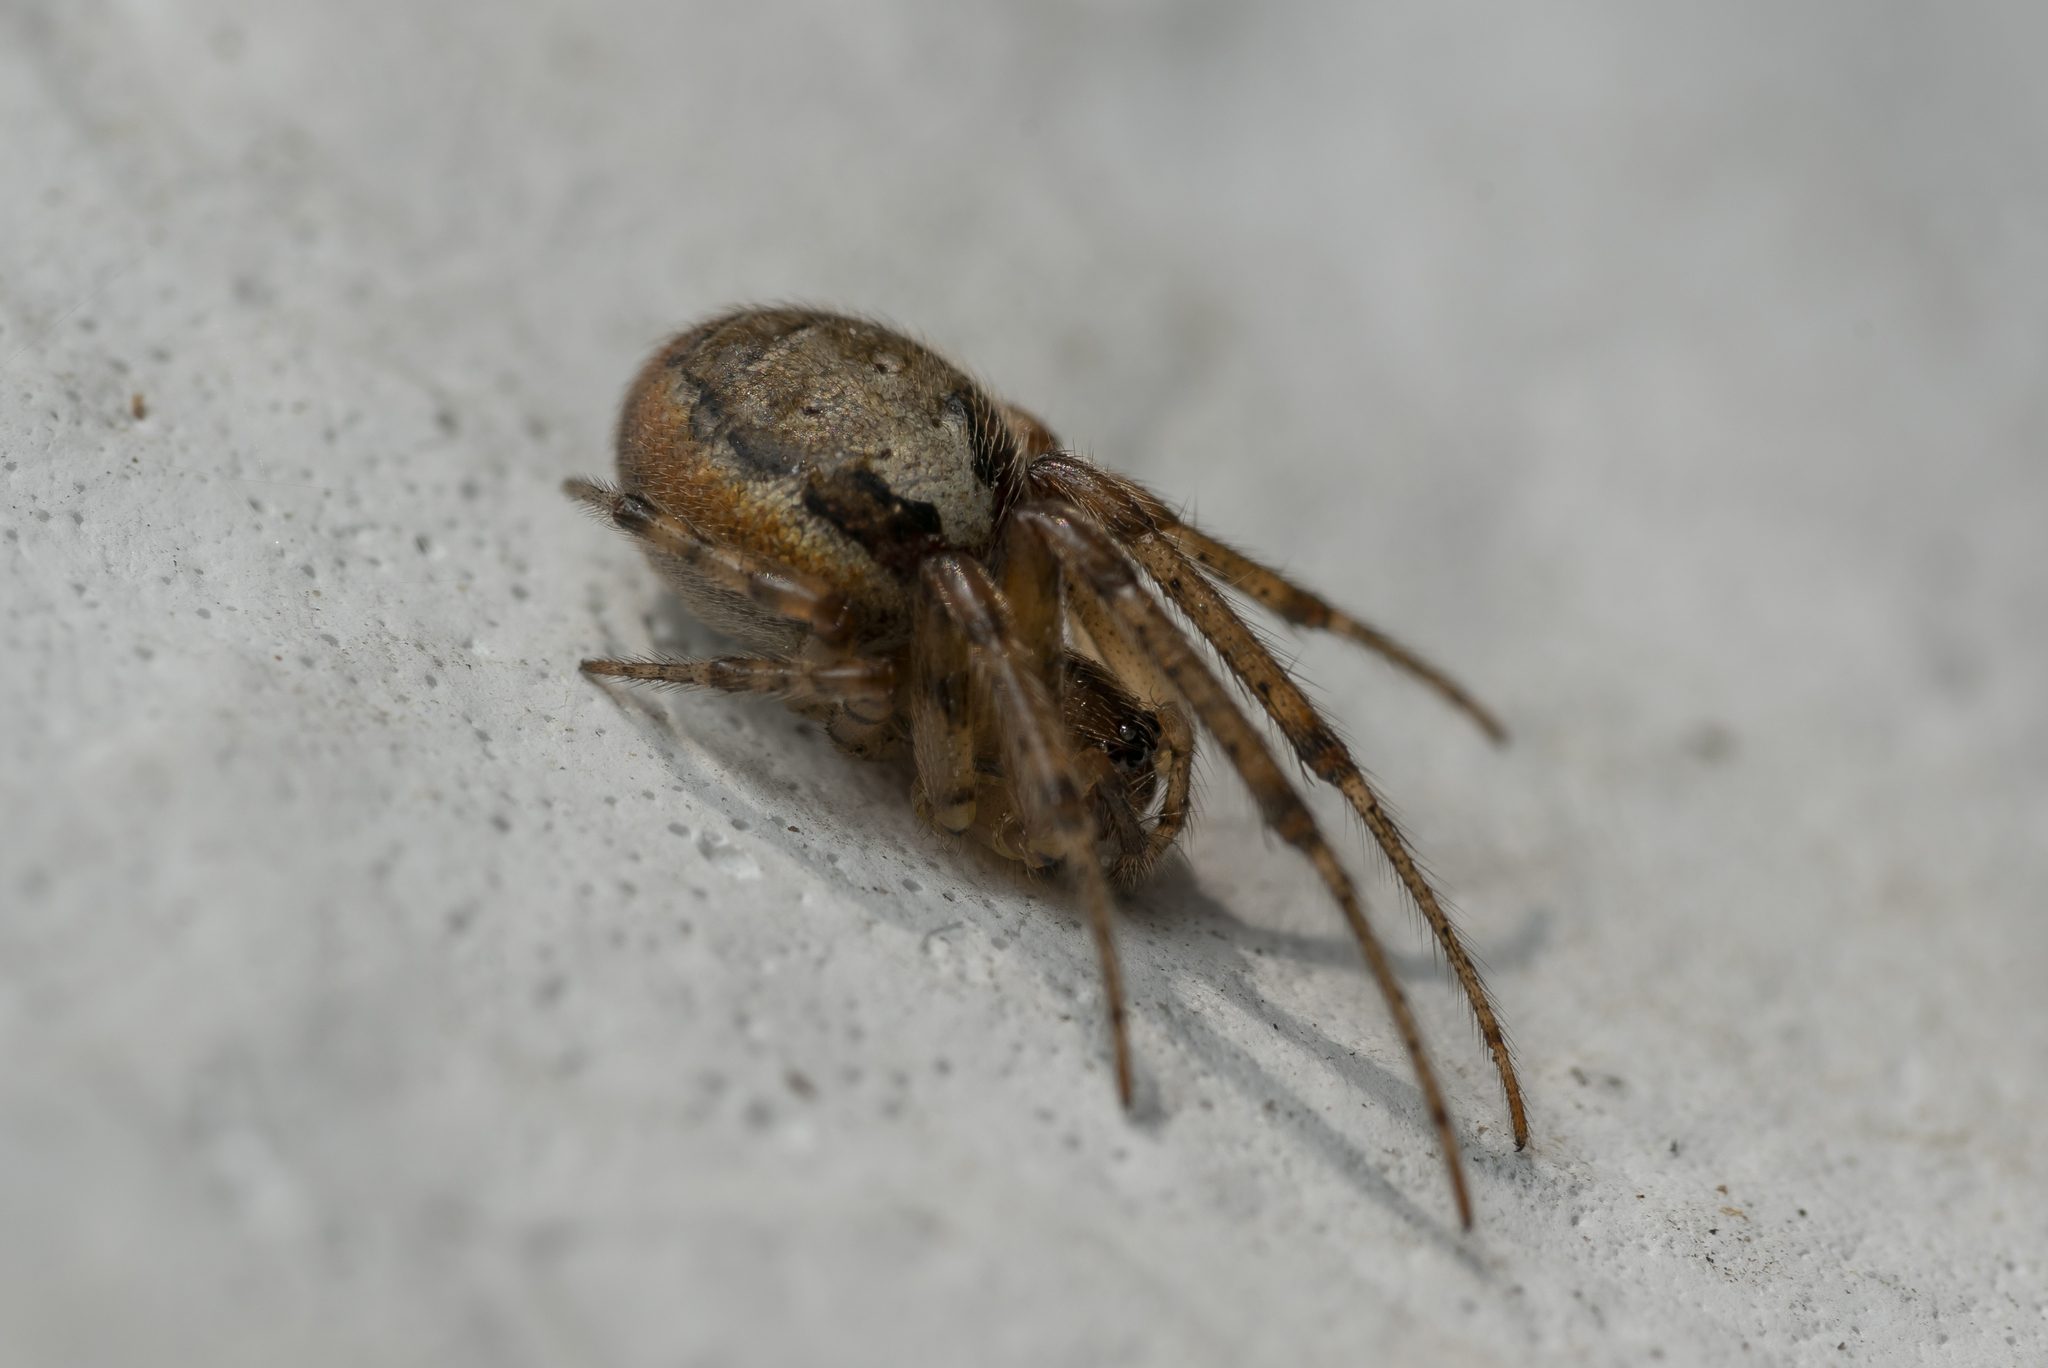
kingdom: Animalia
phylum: Arthropoda
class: Arachnida
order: Araneae
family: Araneidae
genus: Zygiella
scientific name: Zygiella x-notata
